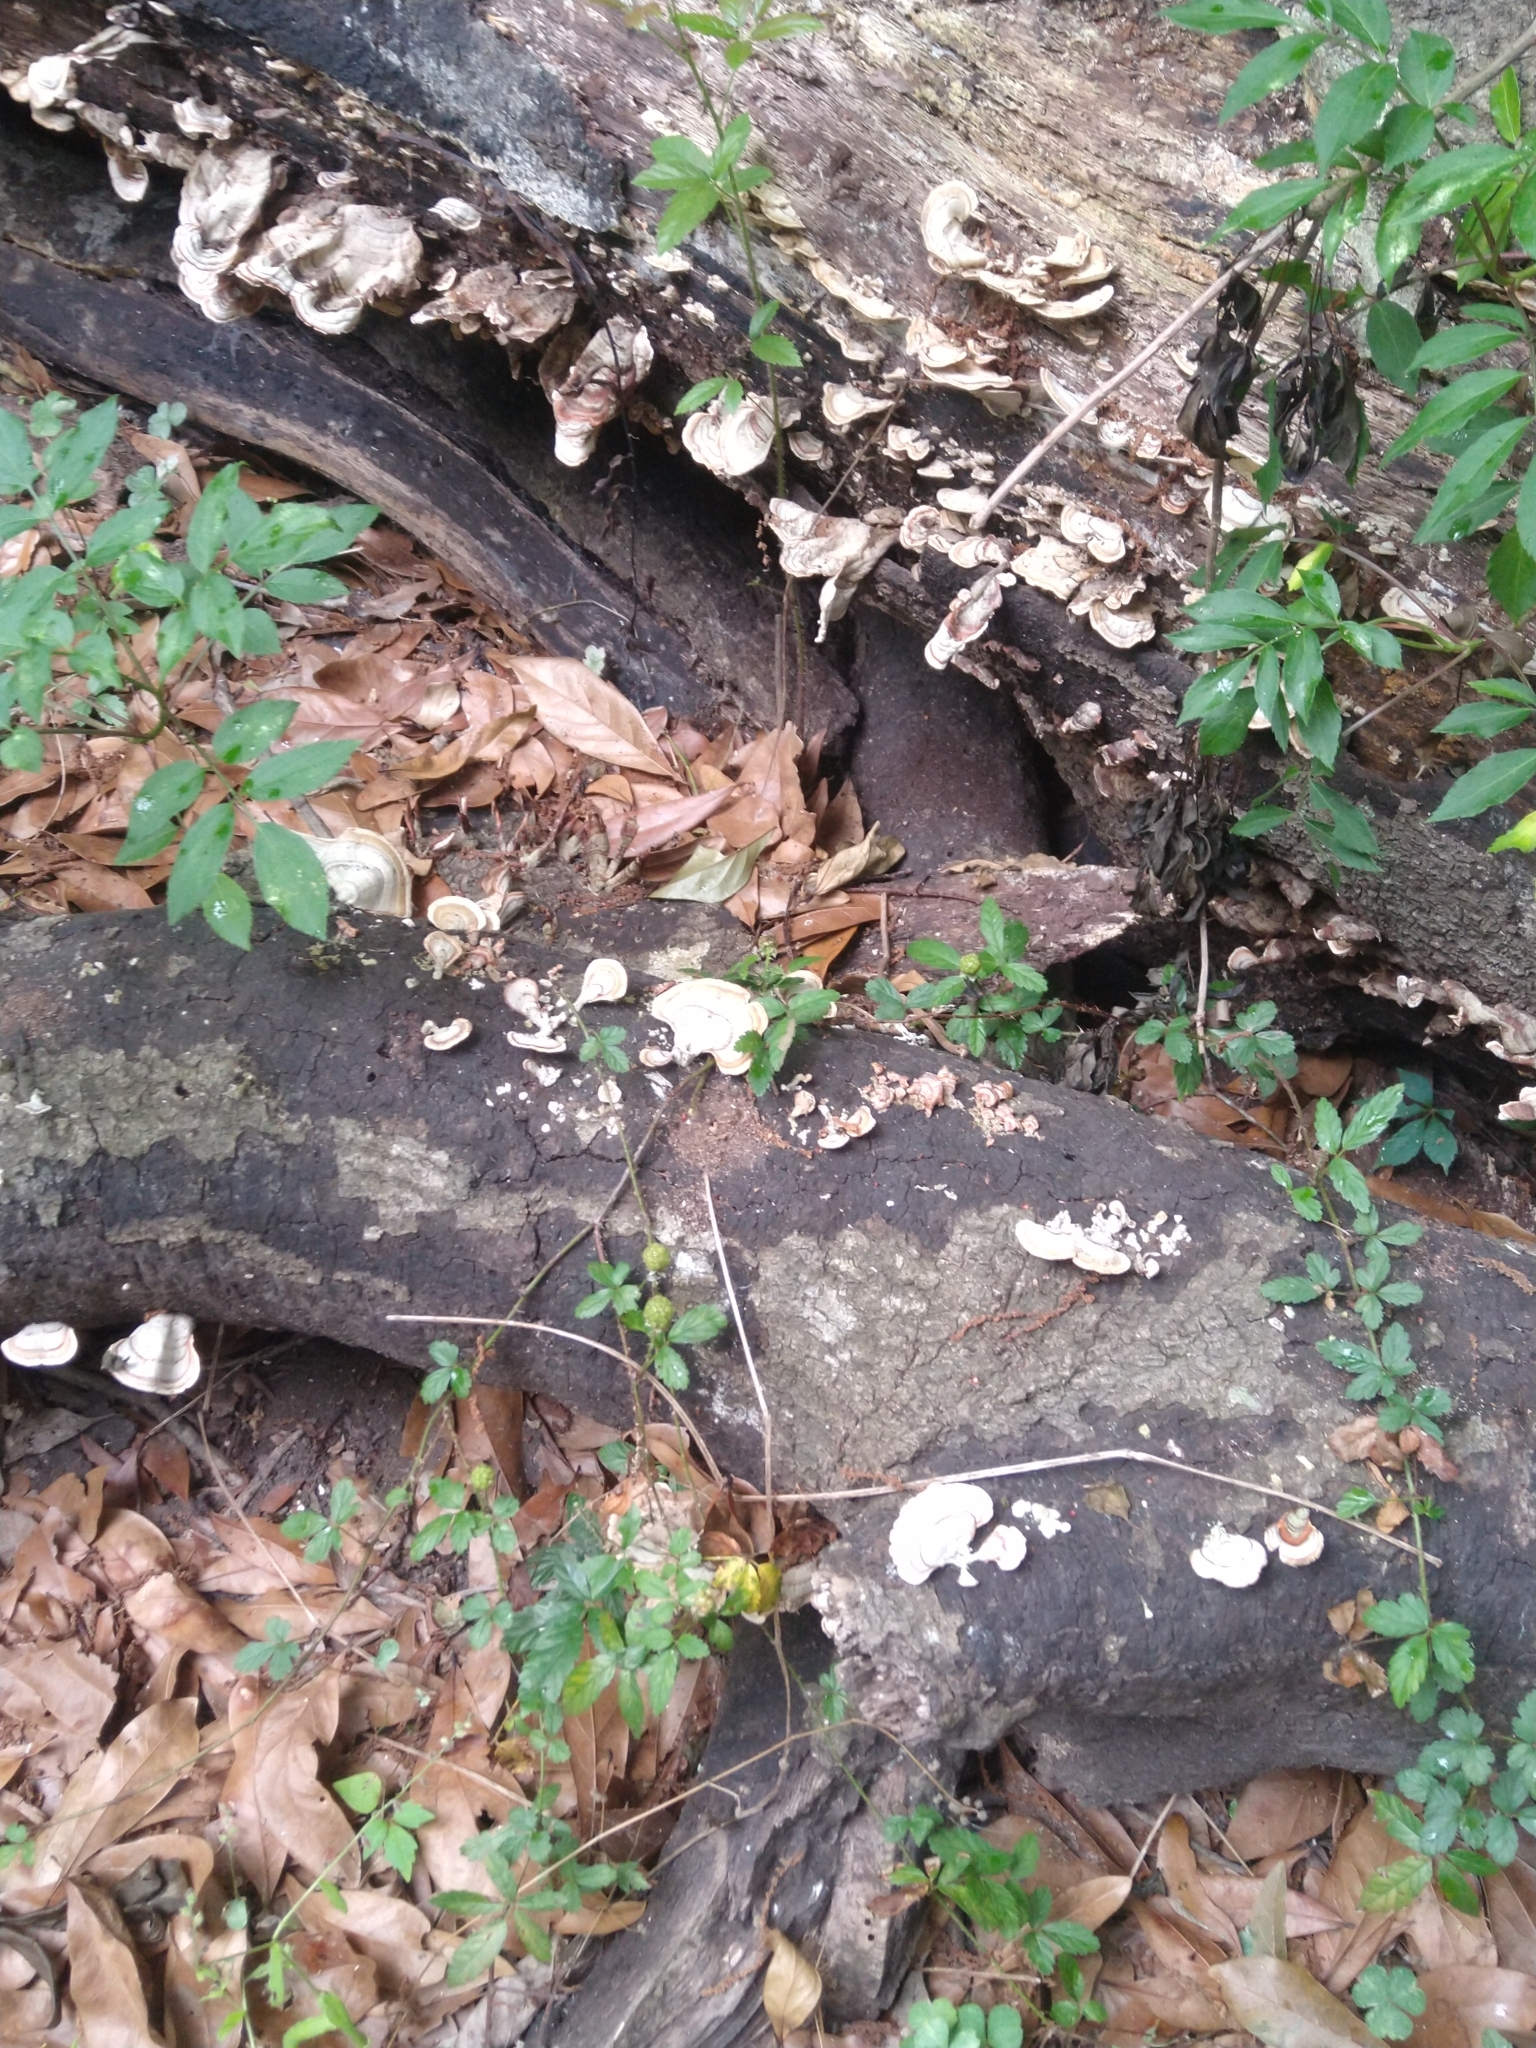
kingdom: Fungi
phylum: Basidiomycota
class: Agaricomycetes
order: Russulales
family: Stereaceae
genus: Stereum
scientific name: Stereum lobatum
